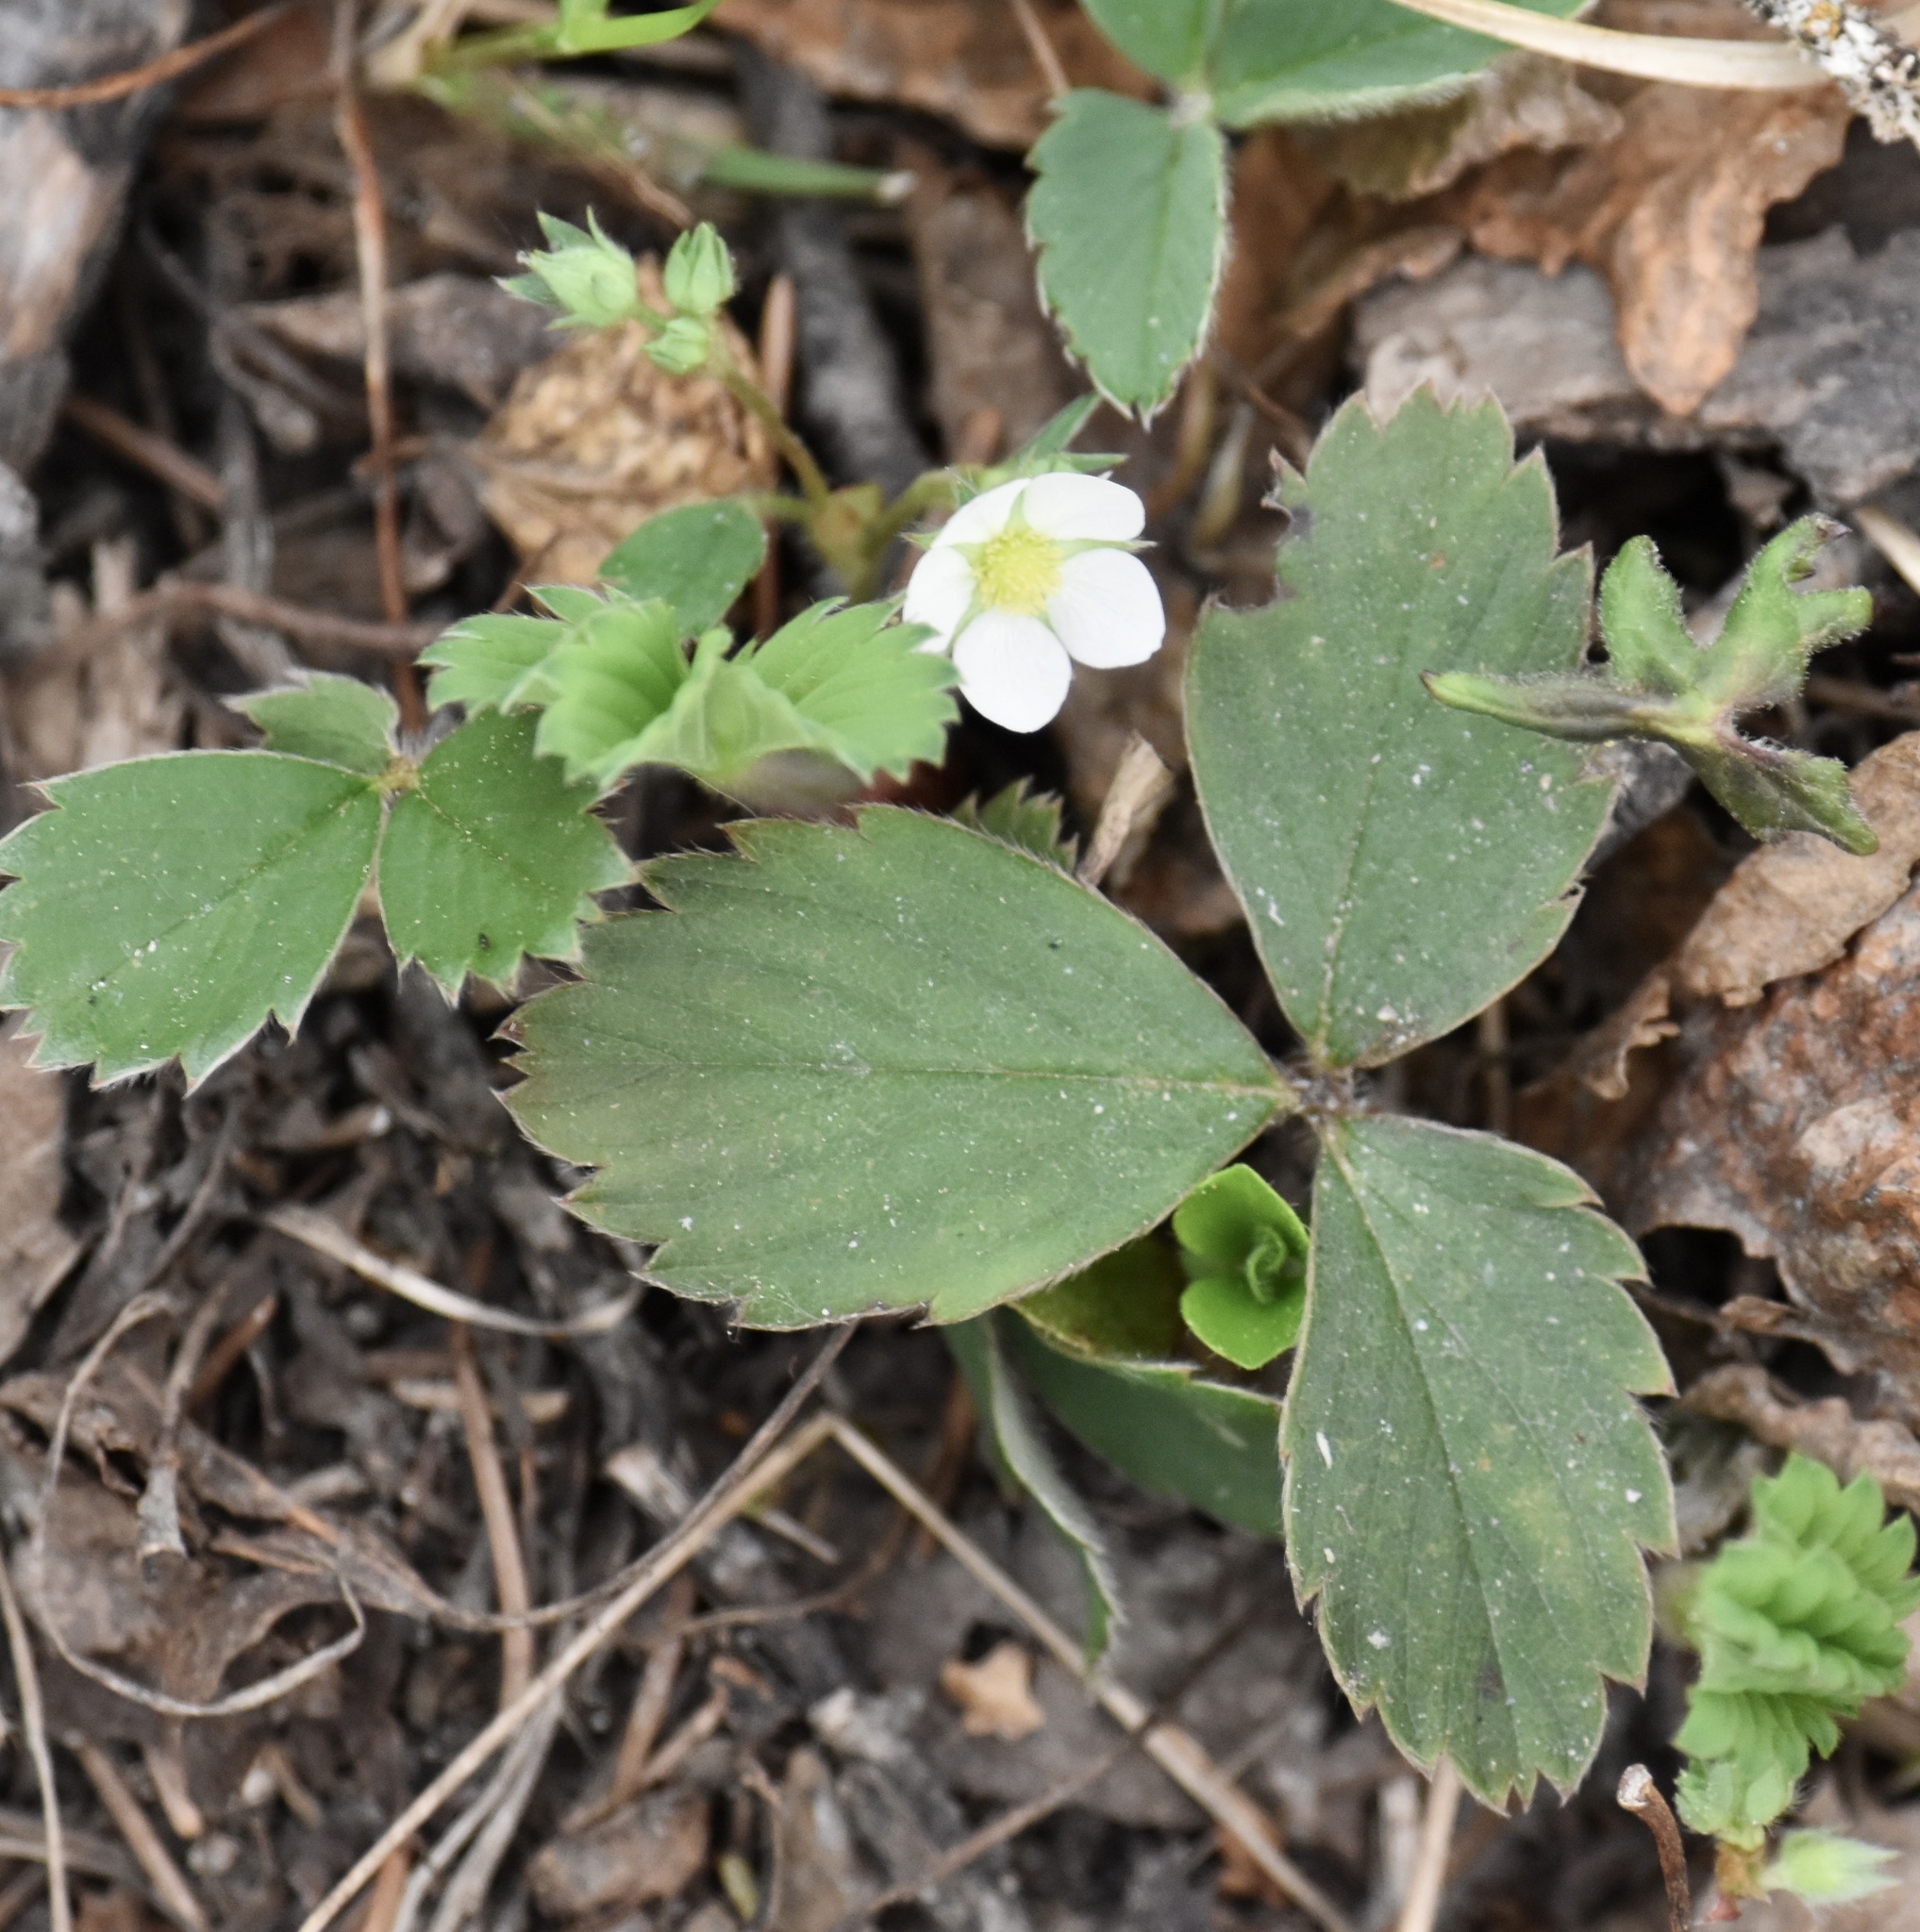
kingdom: Plantae
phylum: Tracheophyta
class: Magnoliopsida
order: Rosales
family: Rosaceae
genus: Fragaria
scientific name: Fragaria virginiana
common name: Thickleaved wild strawberry
